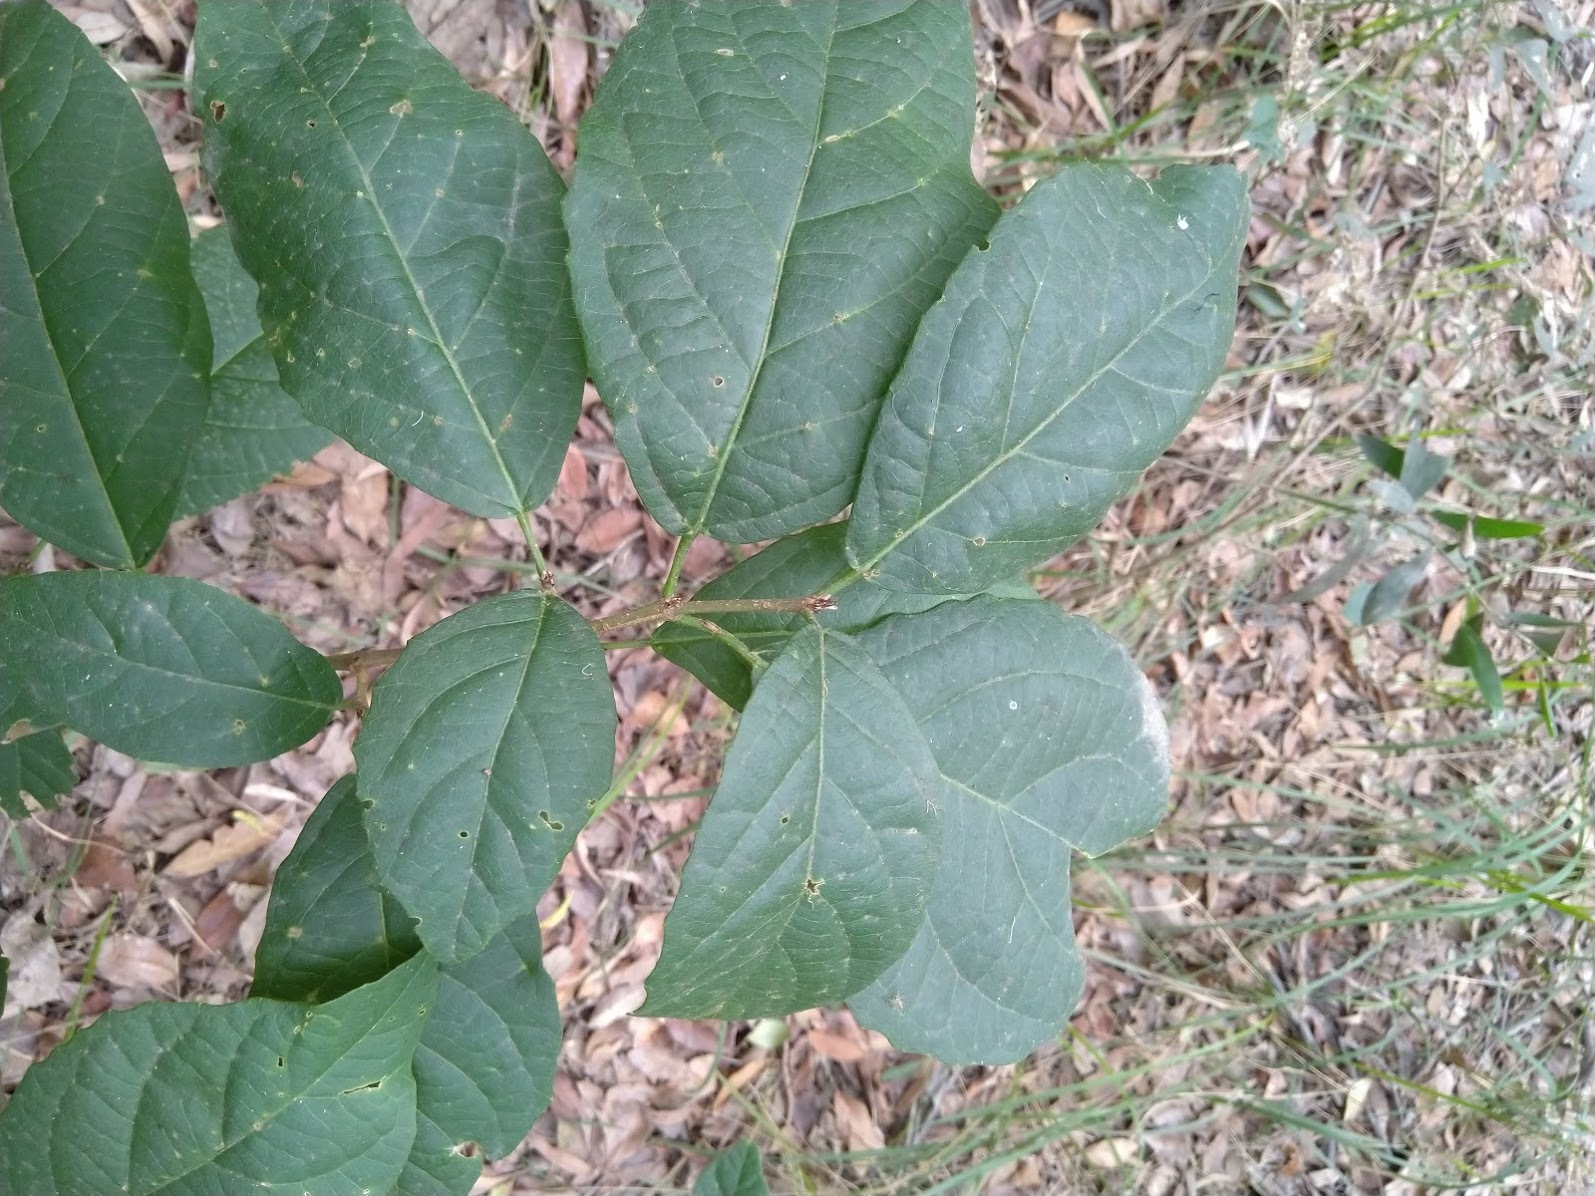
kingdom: Plantae
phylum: Tracheophyta
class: Magnoliopsida
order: Malpighiales
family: Euphorbiaceae
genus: Mallotus
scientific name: Mallotus claoxyloides
